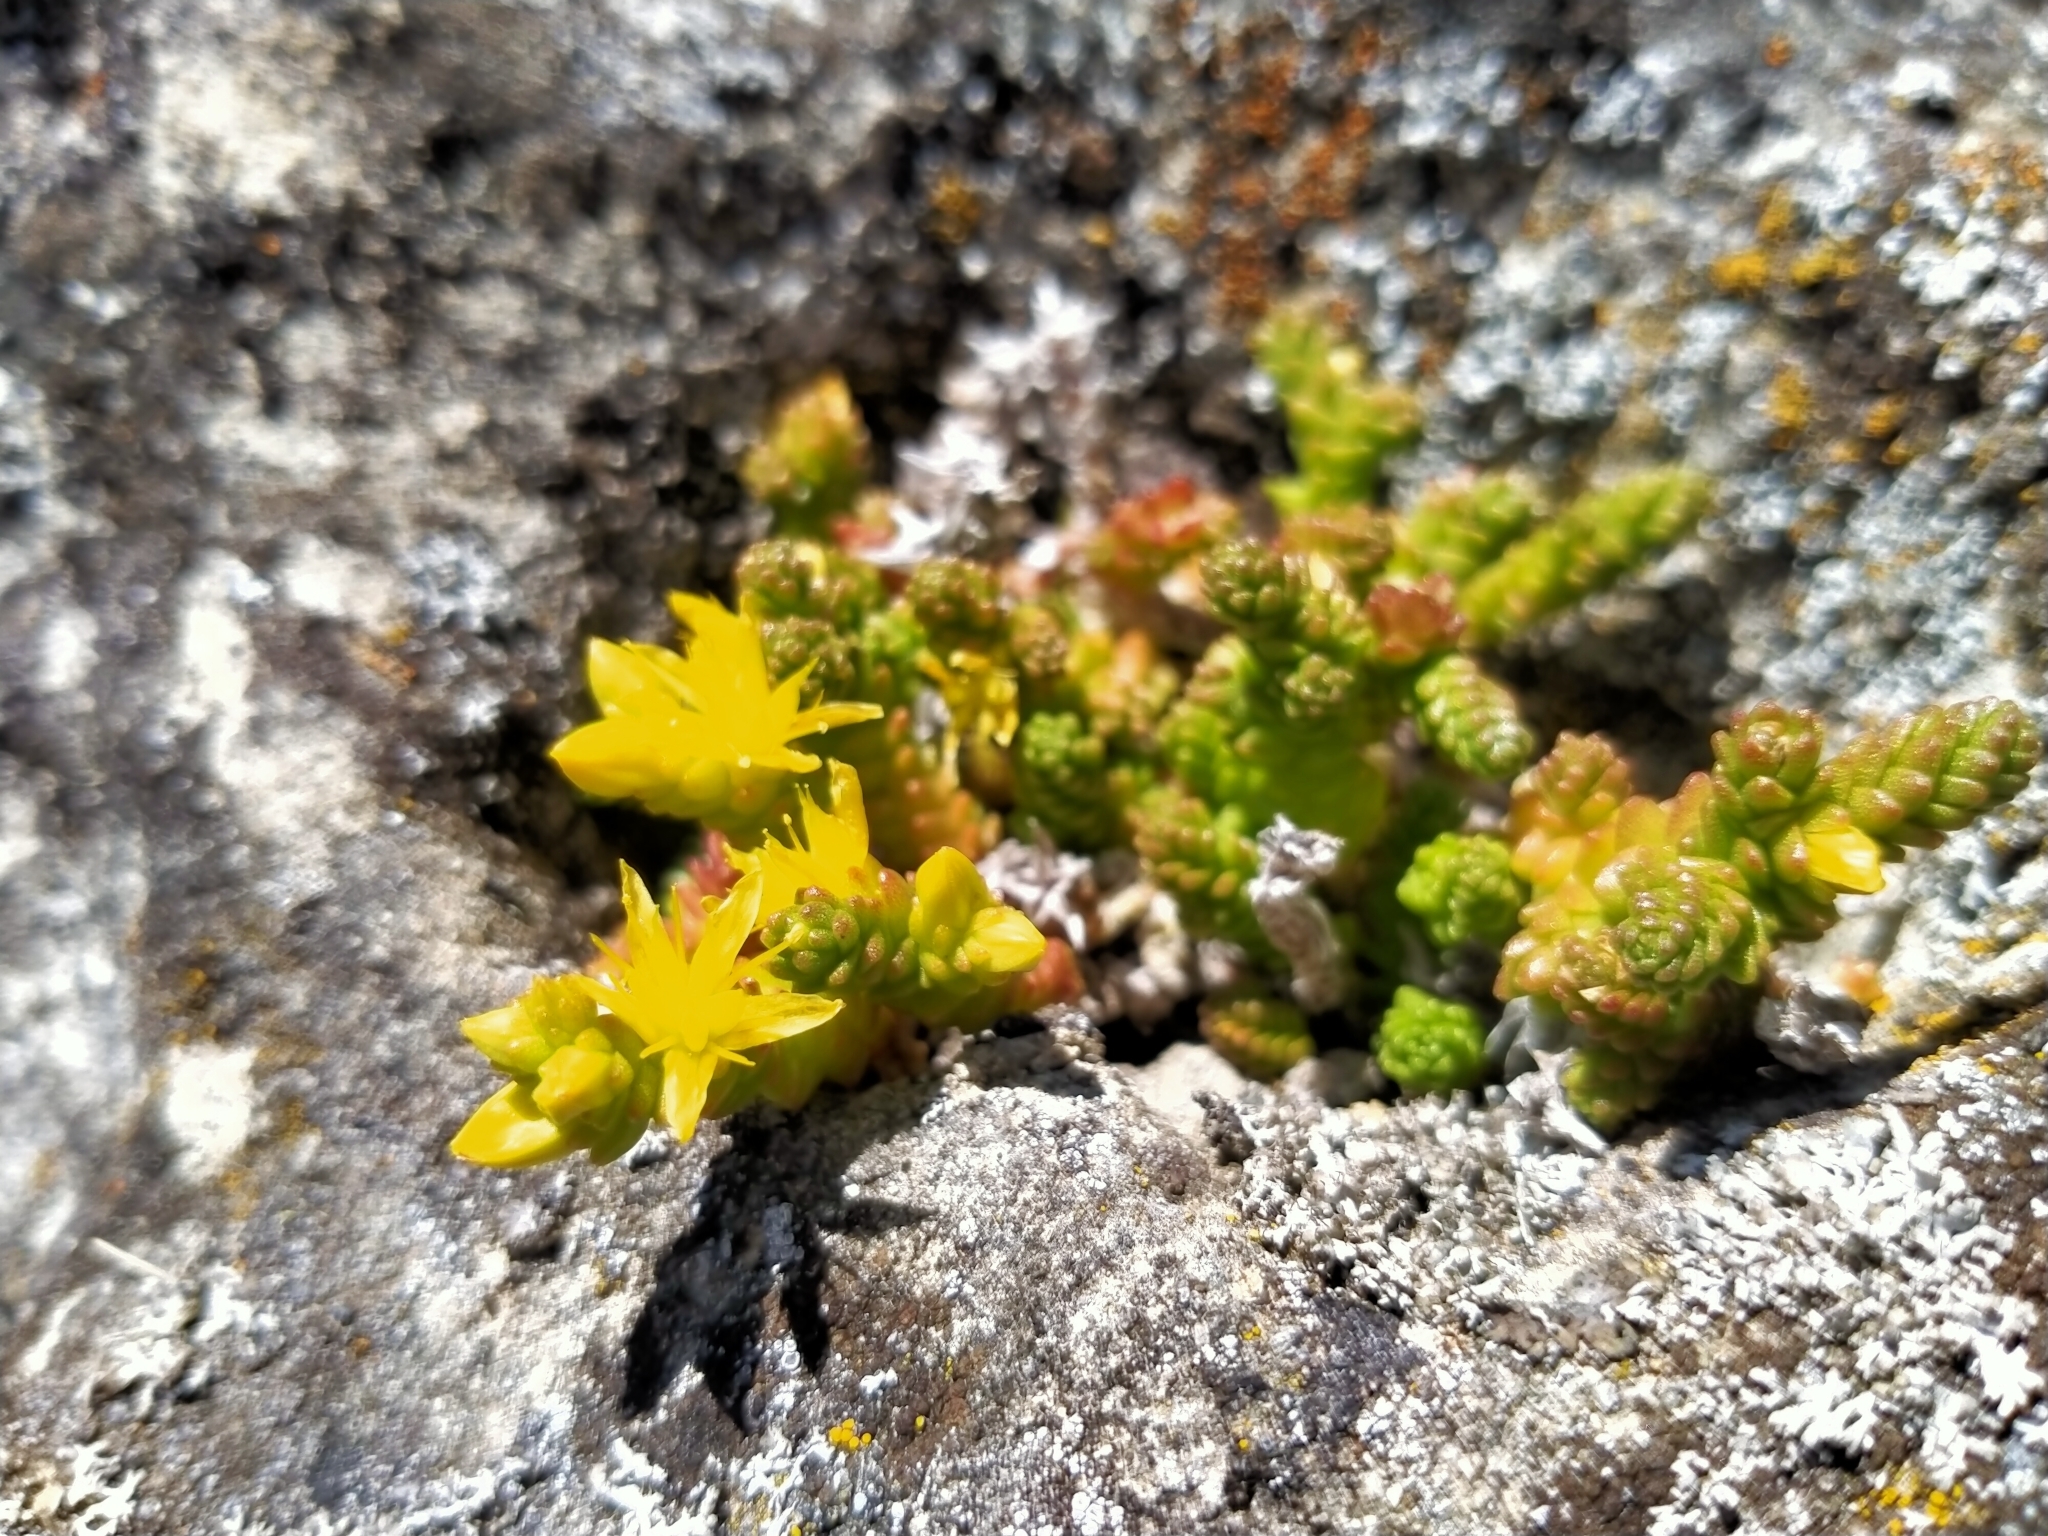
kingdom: Plantae
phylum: Tracheophyta
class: Magnoliopsida
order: Saxifragales
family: Crassulaceae
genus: Sedum
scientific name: Sedum acre
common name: Biting stonecrop
